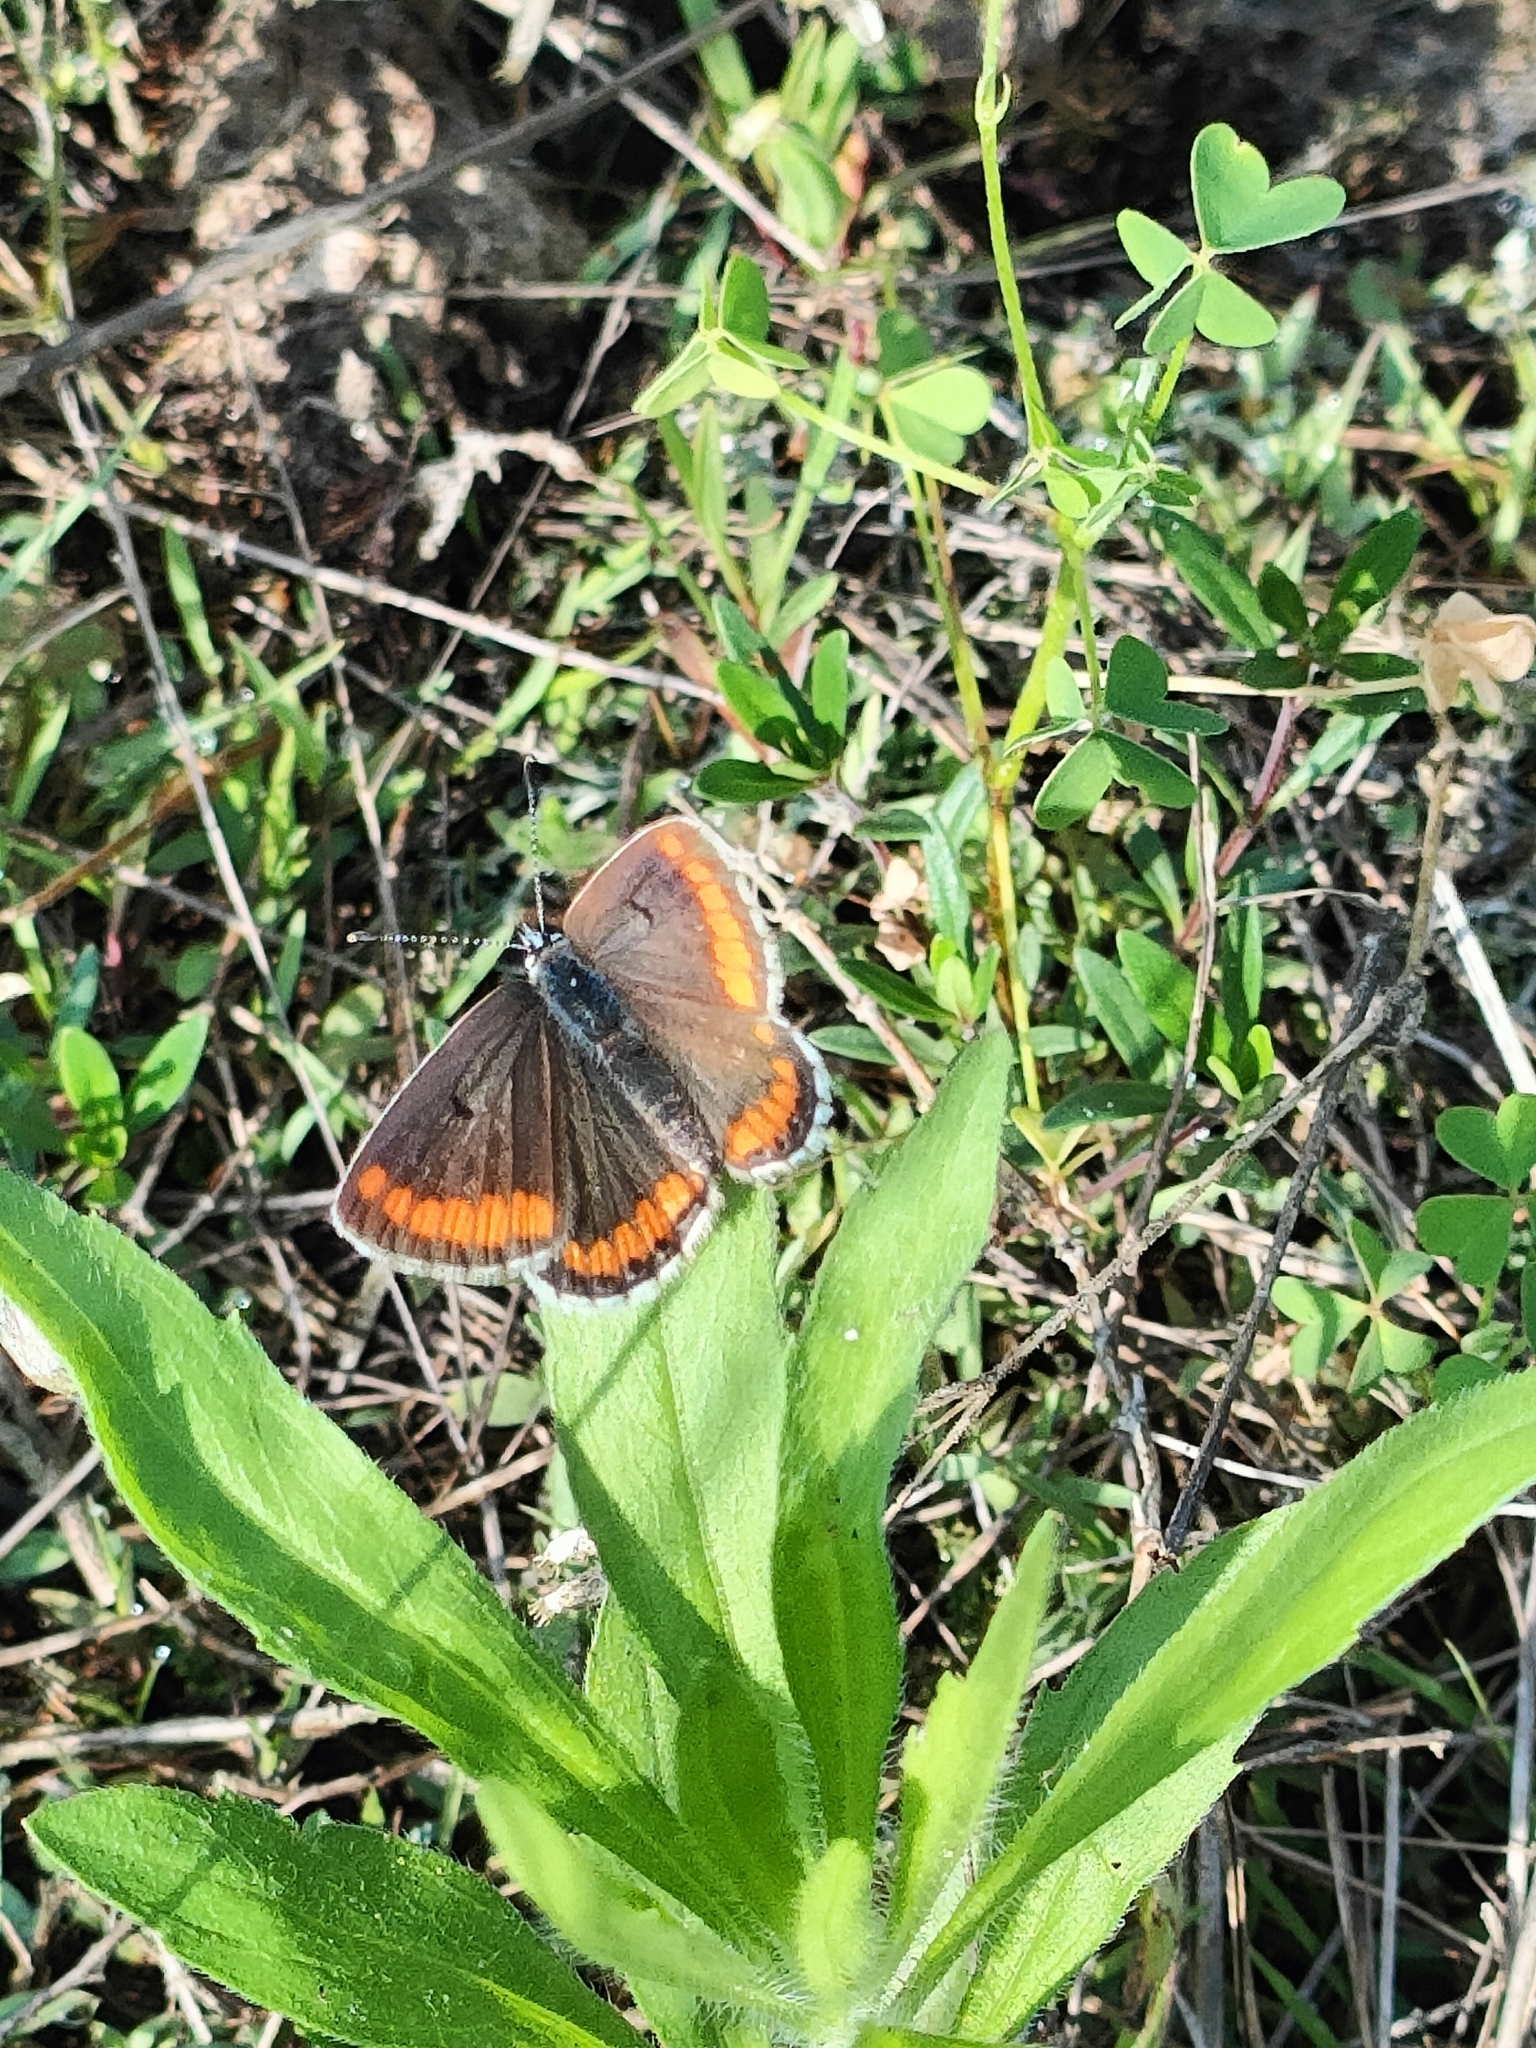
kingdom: Animalia
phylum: Arthropoda
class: Insecta
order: Lepidoptera
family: Lycaenidae
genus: Aricia
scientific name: Aricia agestis
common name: Brown argus
